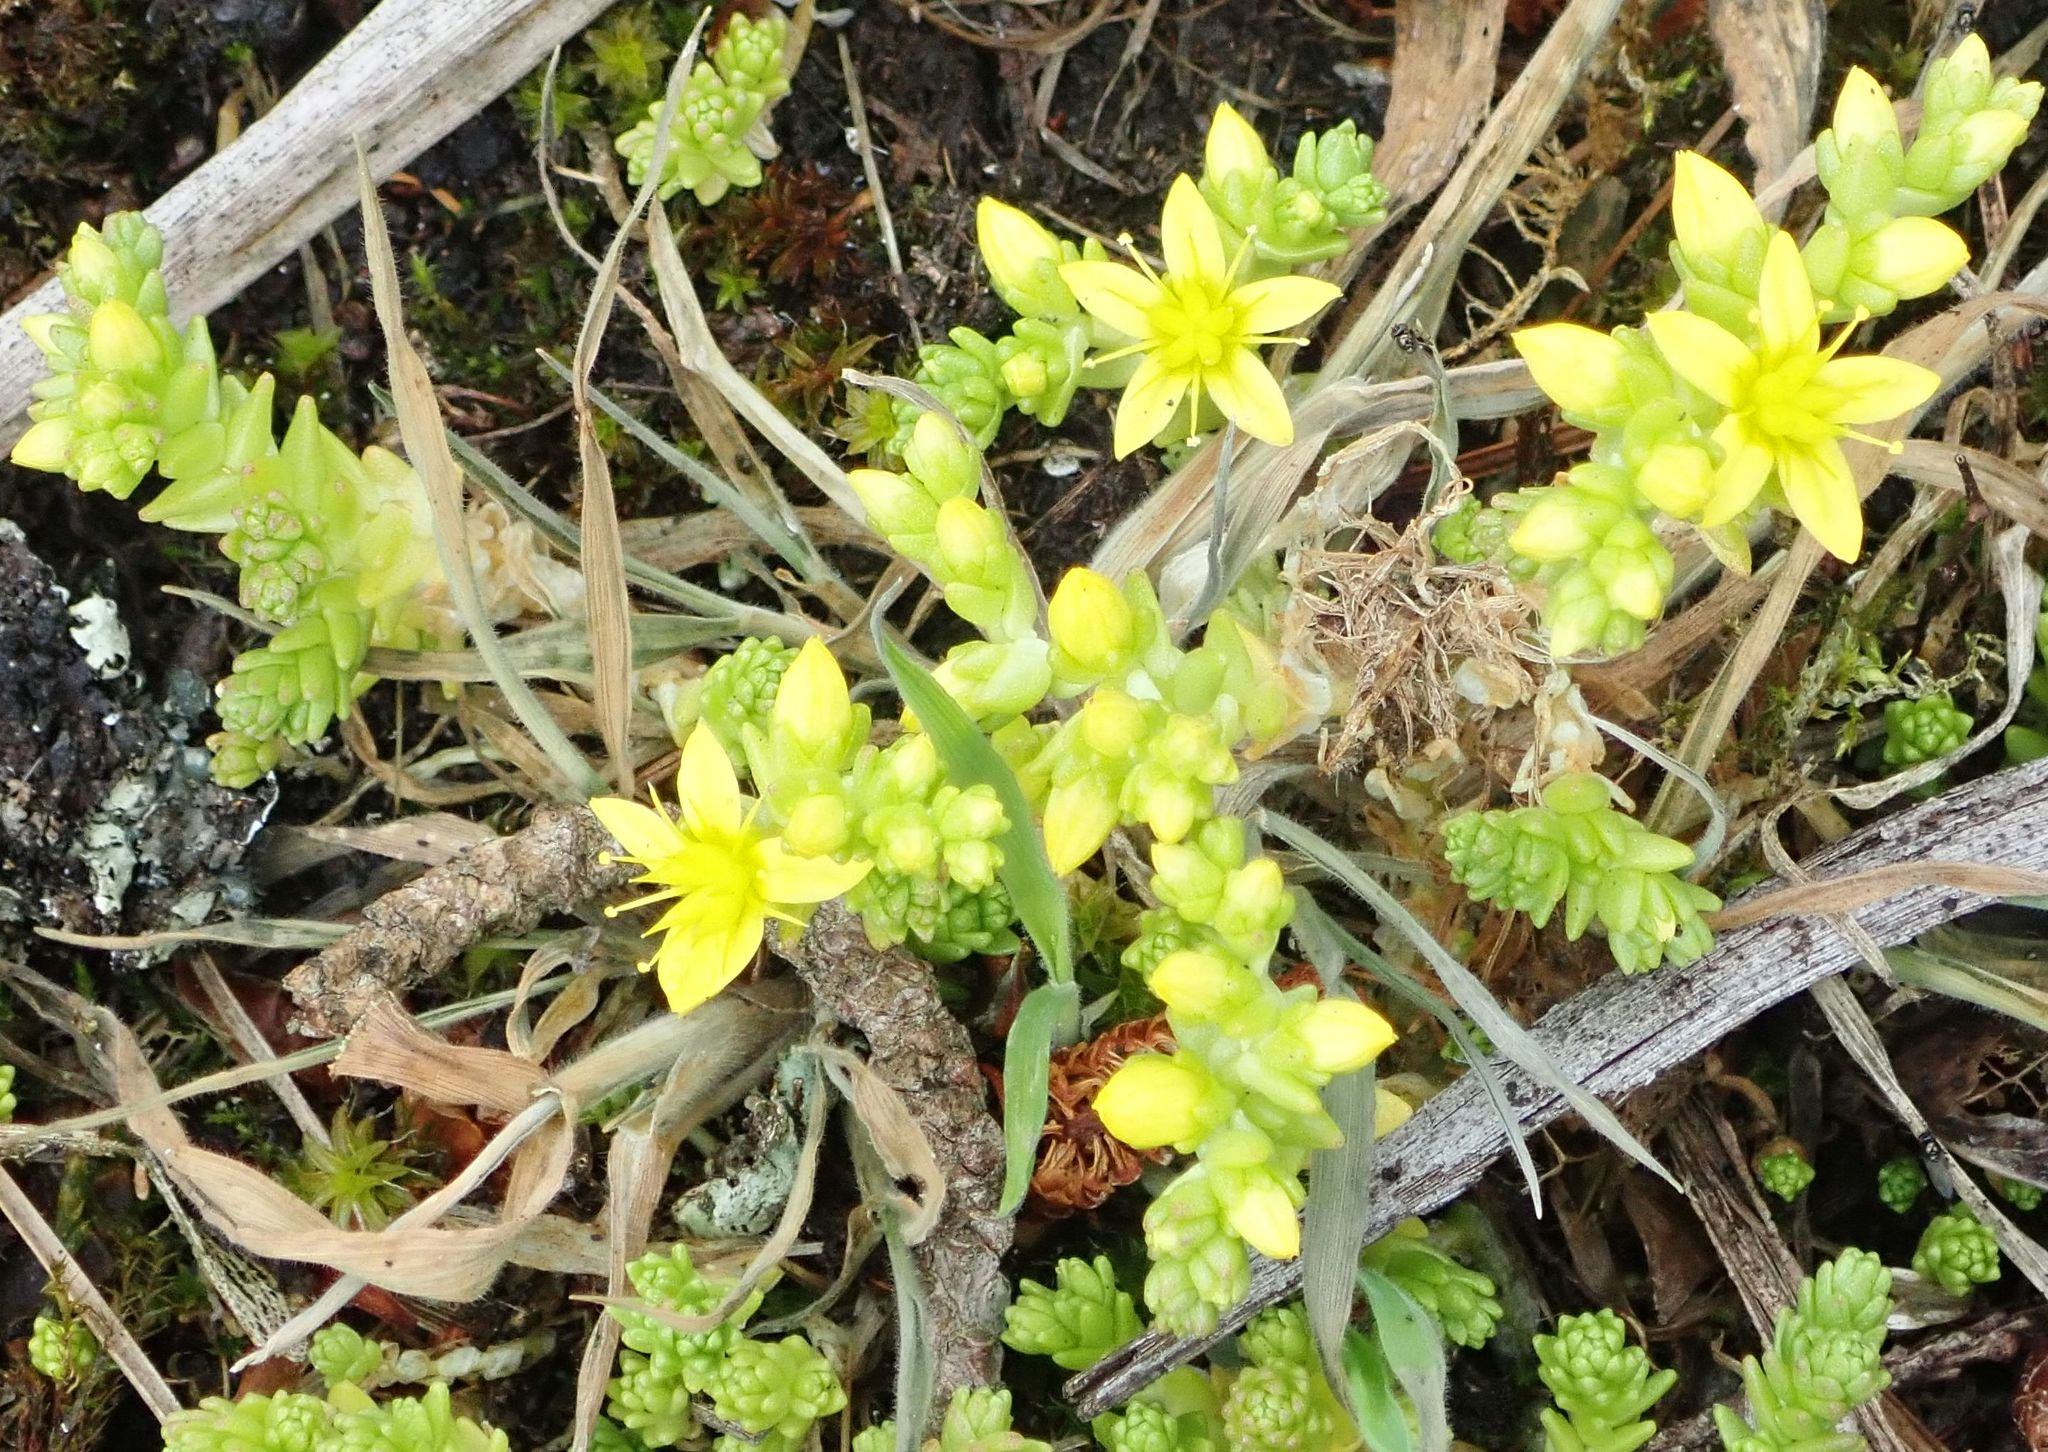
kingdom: Plantae
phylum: Tracheophyta
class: Magnoliopsida
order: Saxifragales
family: Crassulaceae
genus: Sedum
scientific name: Sedum acre
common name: Biting stonecrop
